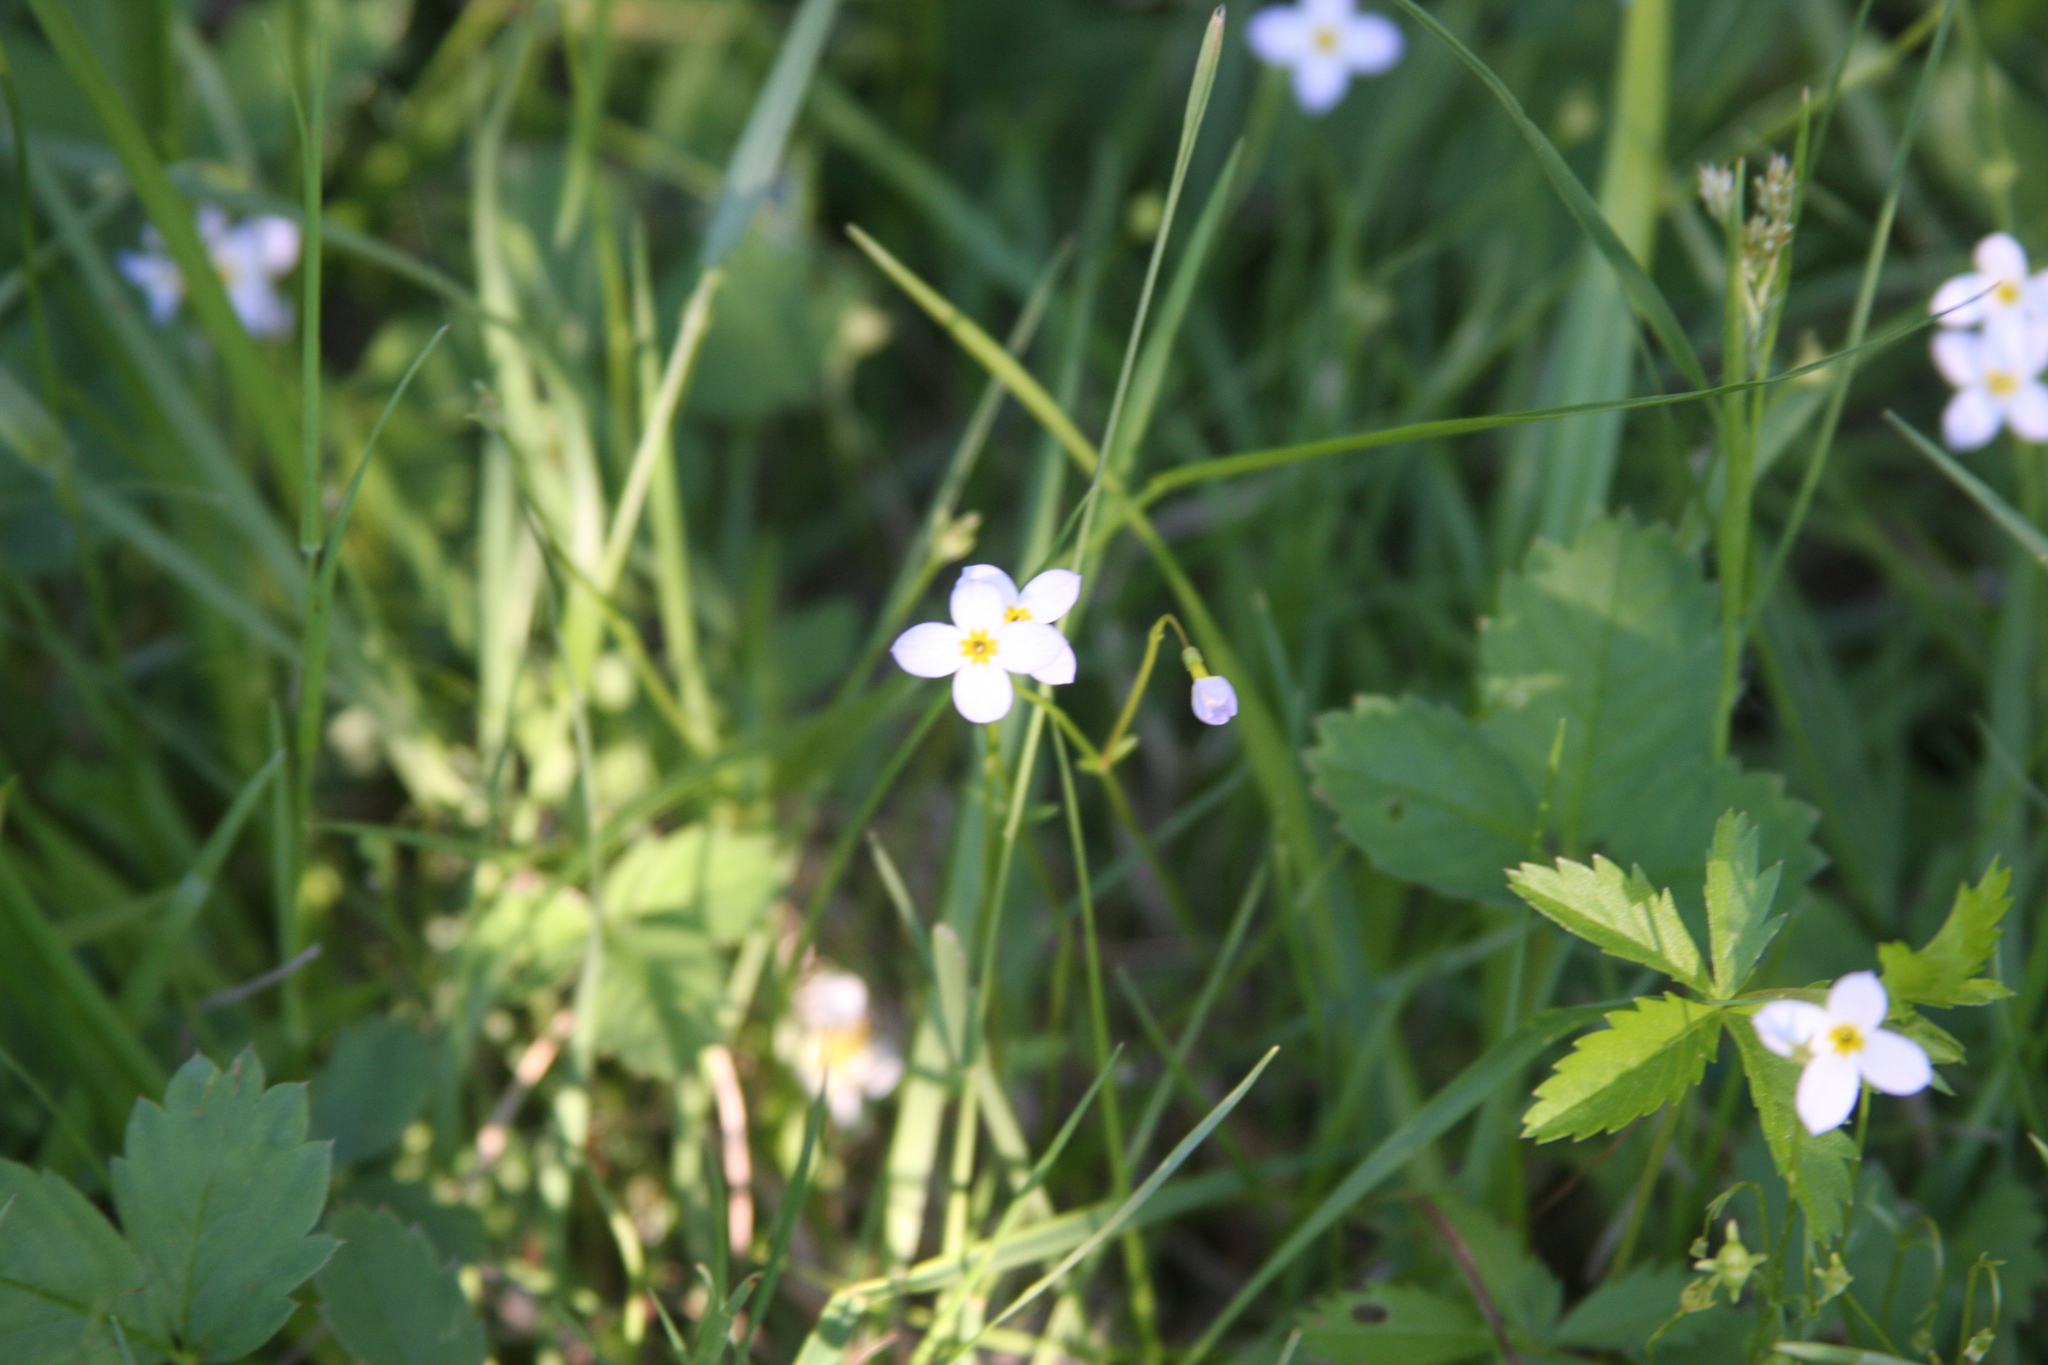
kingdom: Plantae
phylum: Tracheophyta
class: Magnoliopsida
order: Gentianales
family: Rubiaceae
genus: Houstonia
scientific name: Houstonia caerulea
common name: Bluets
